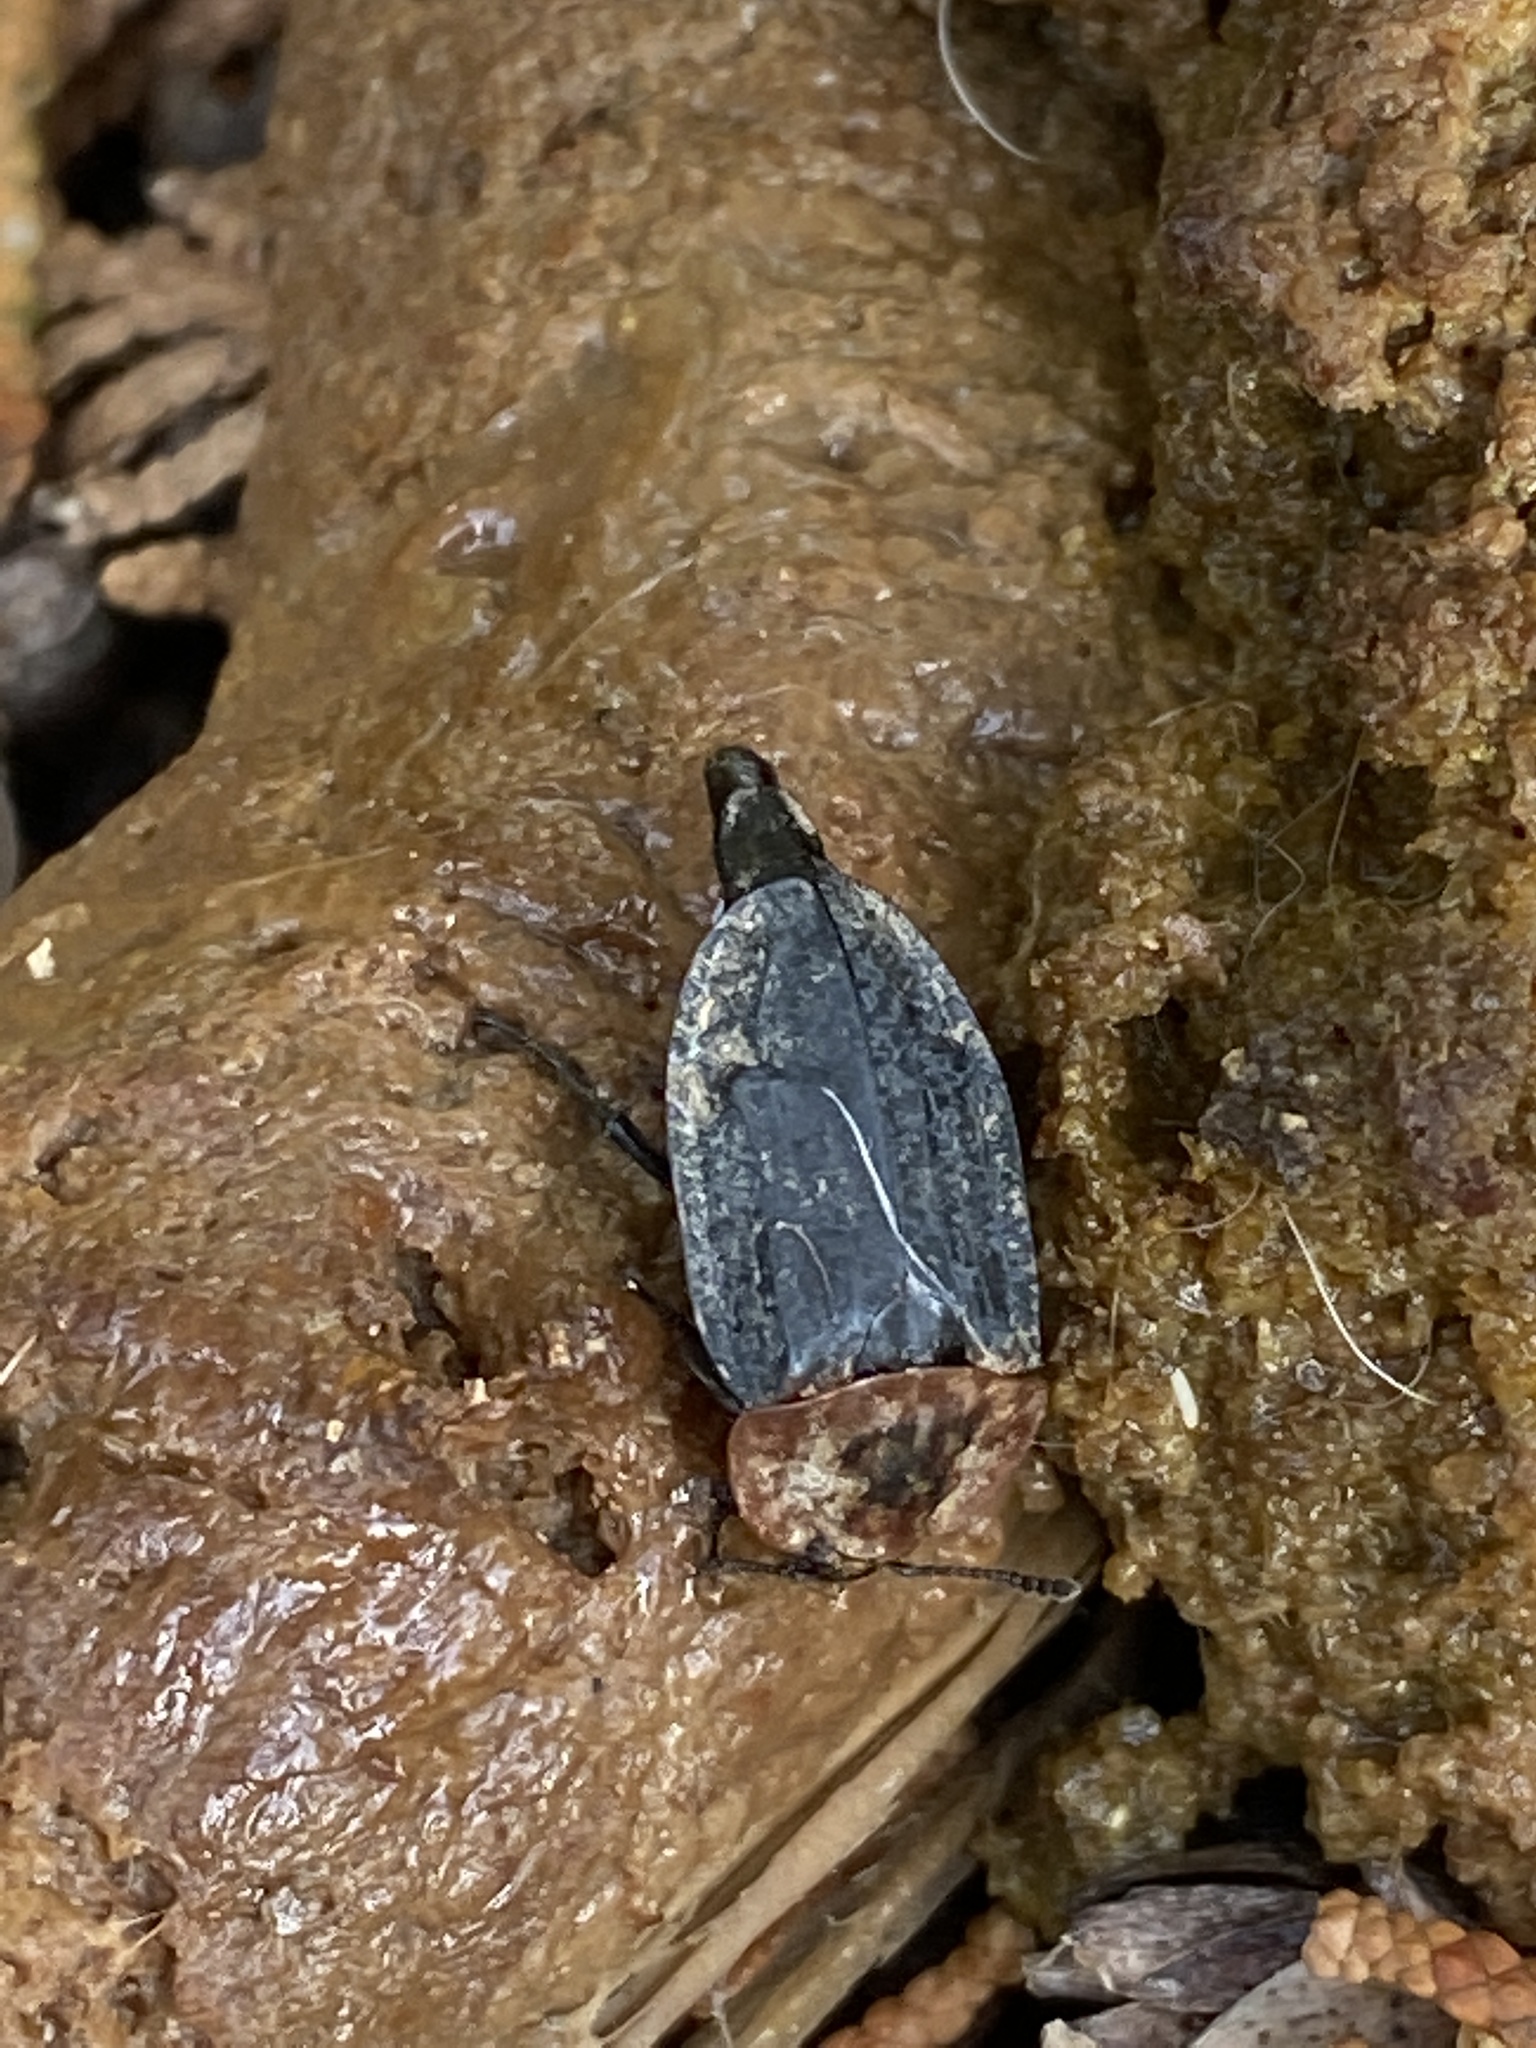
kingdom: Animalia
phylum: Arthropoda
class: Insecta
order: Coleoptera
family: Staphylinidae
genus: Oiceoptoma
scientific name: Oiceoptoma thoracicum
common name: Red-breasted carrion beetle
